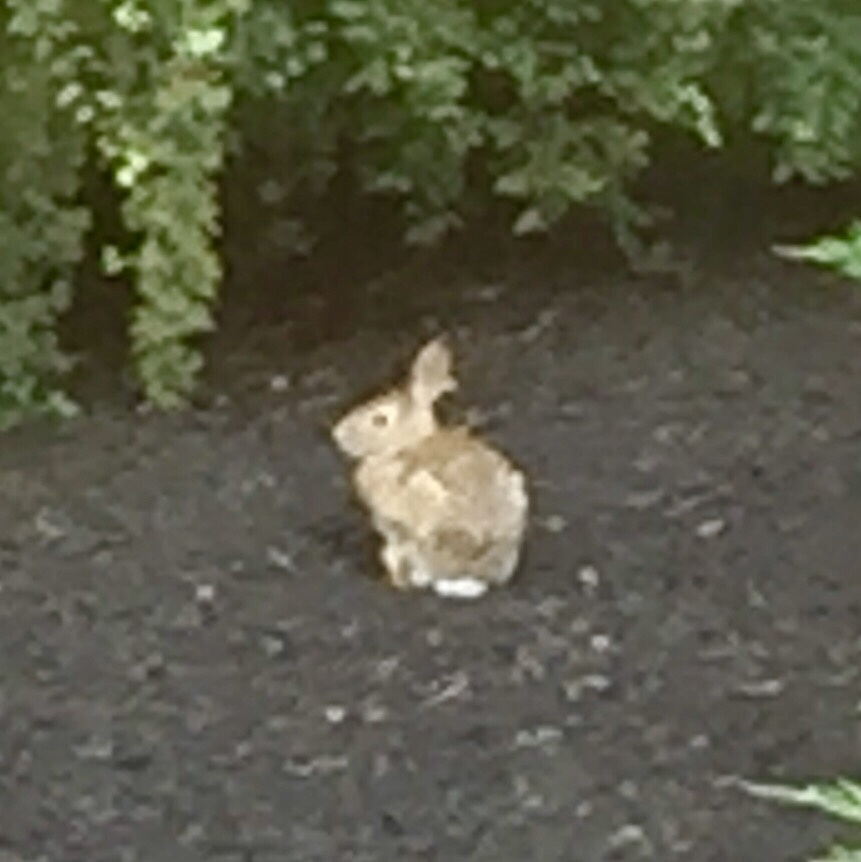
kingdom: Animalia
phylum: Chordata
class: Mammalia
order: Lagomorpha
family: Leporidae
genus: Sylvilagus
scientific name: Sylvilagus floridanus
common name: Eastern cottontail
